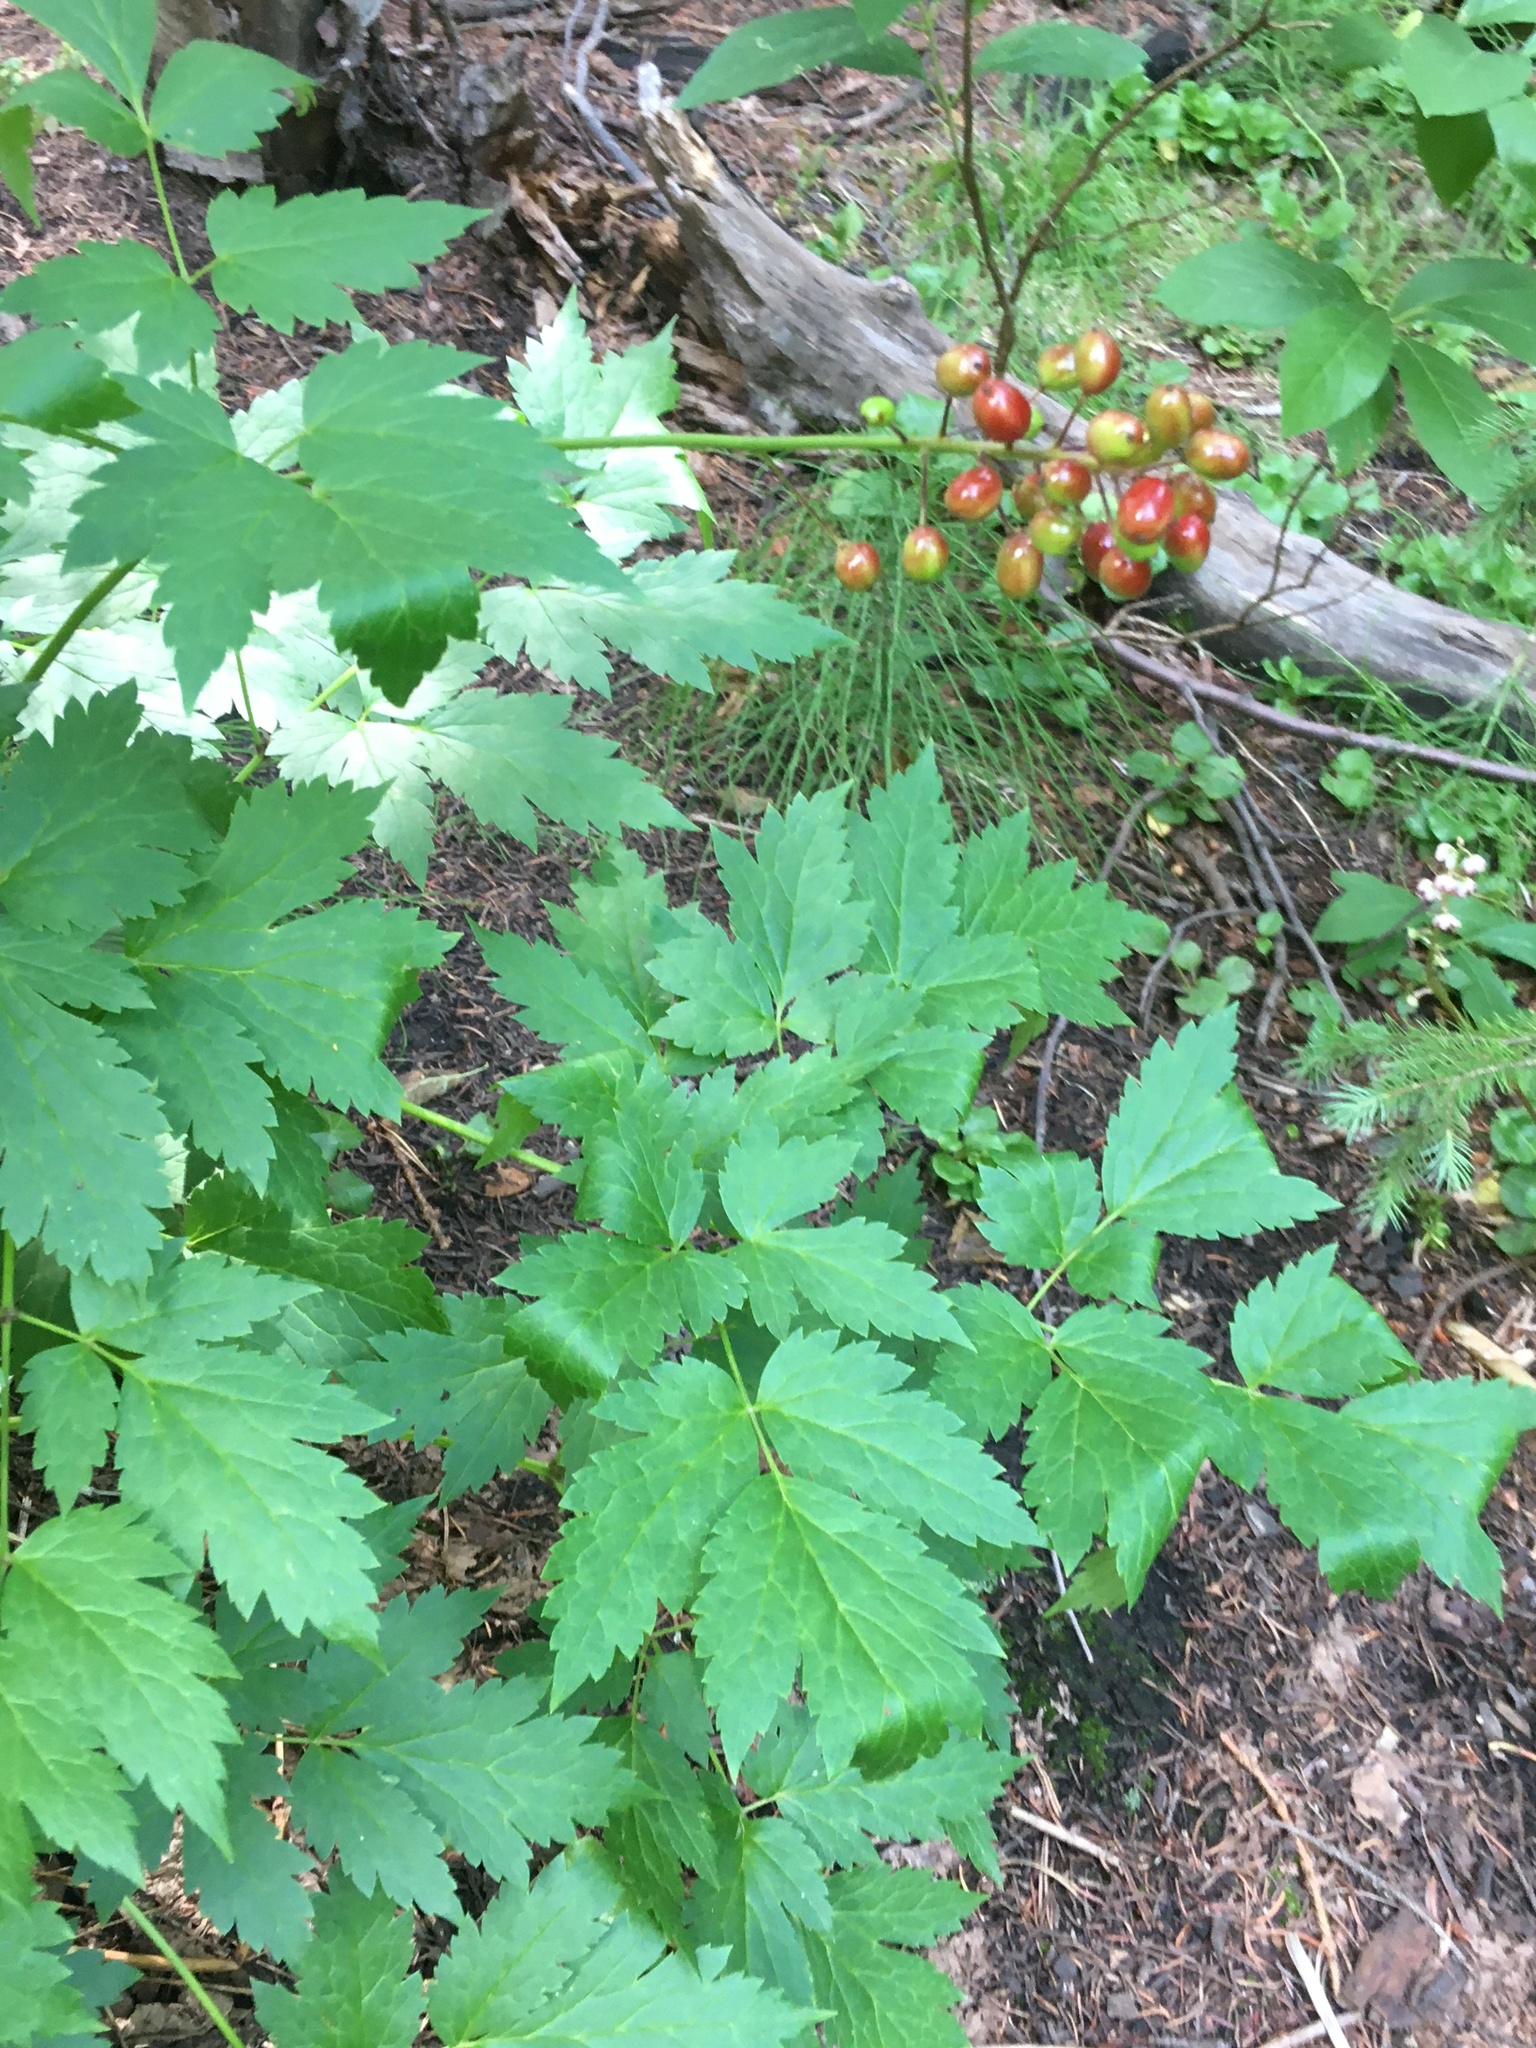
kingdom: Plantae
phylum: Tracheophyta
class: Magnoliopsida
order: Ranunculales
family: Ranunculaceae
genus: Actaea
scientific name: Actaea rubra
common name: Red baneberry
